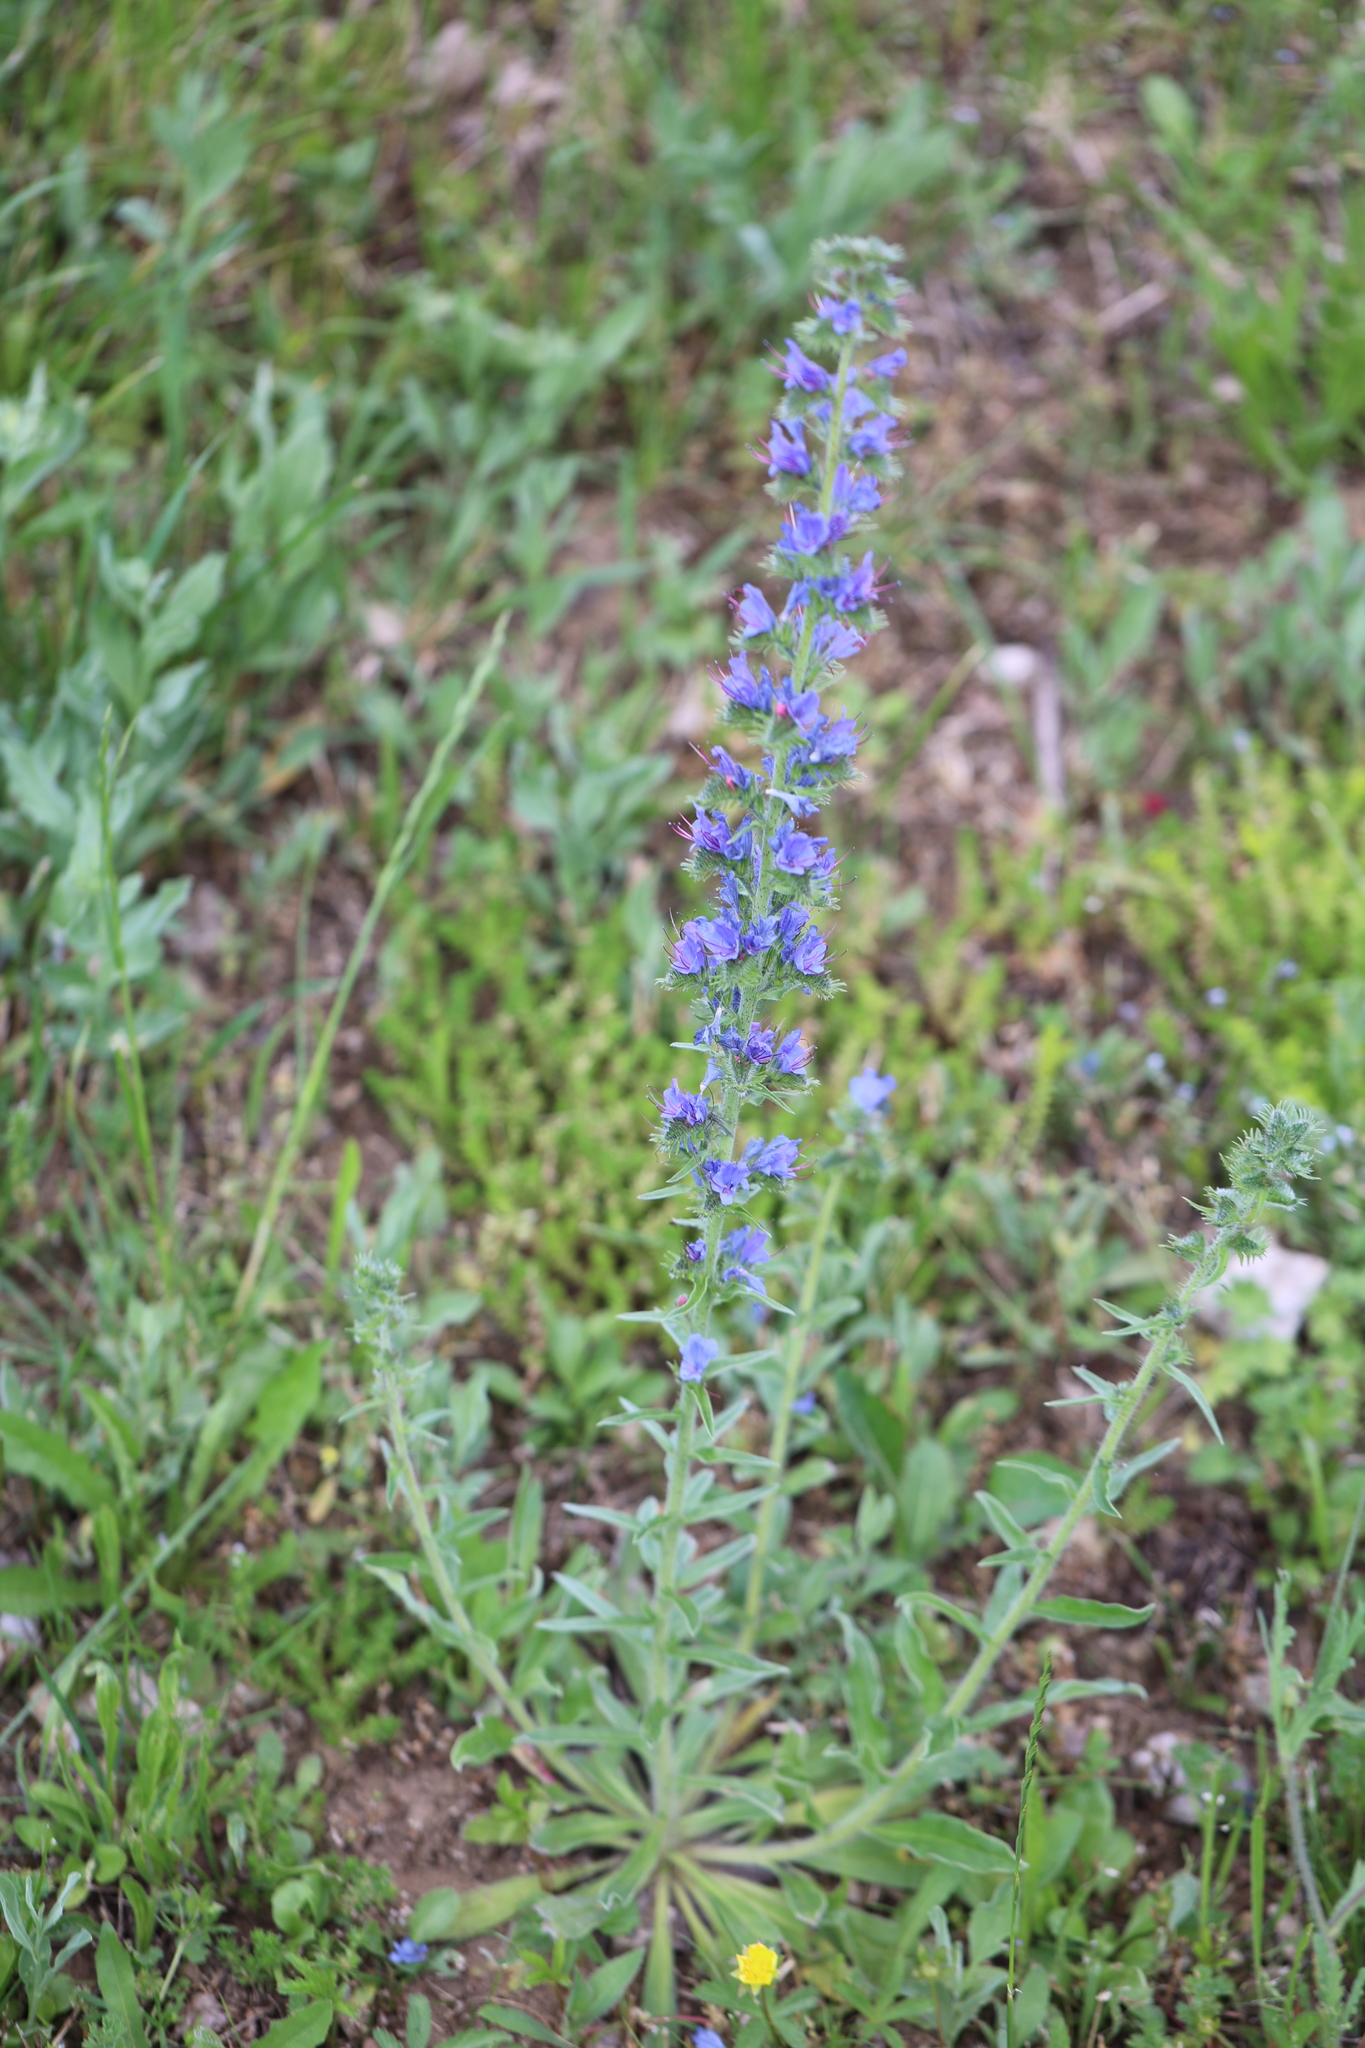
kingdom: Plantae
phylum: Tracheophyta
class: Magnoliopsida
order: Boraginales
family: Boraginaceae
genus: Echium
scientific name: Echium vulgare
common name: Common viper's bugloss
